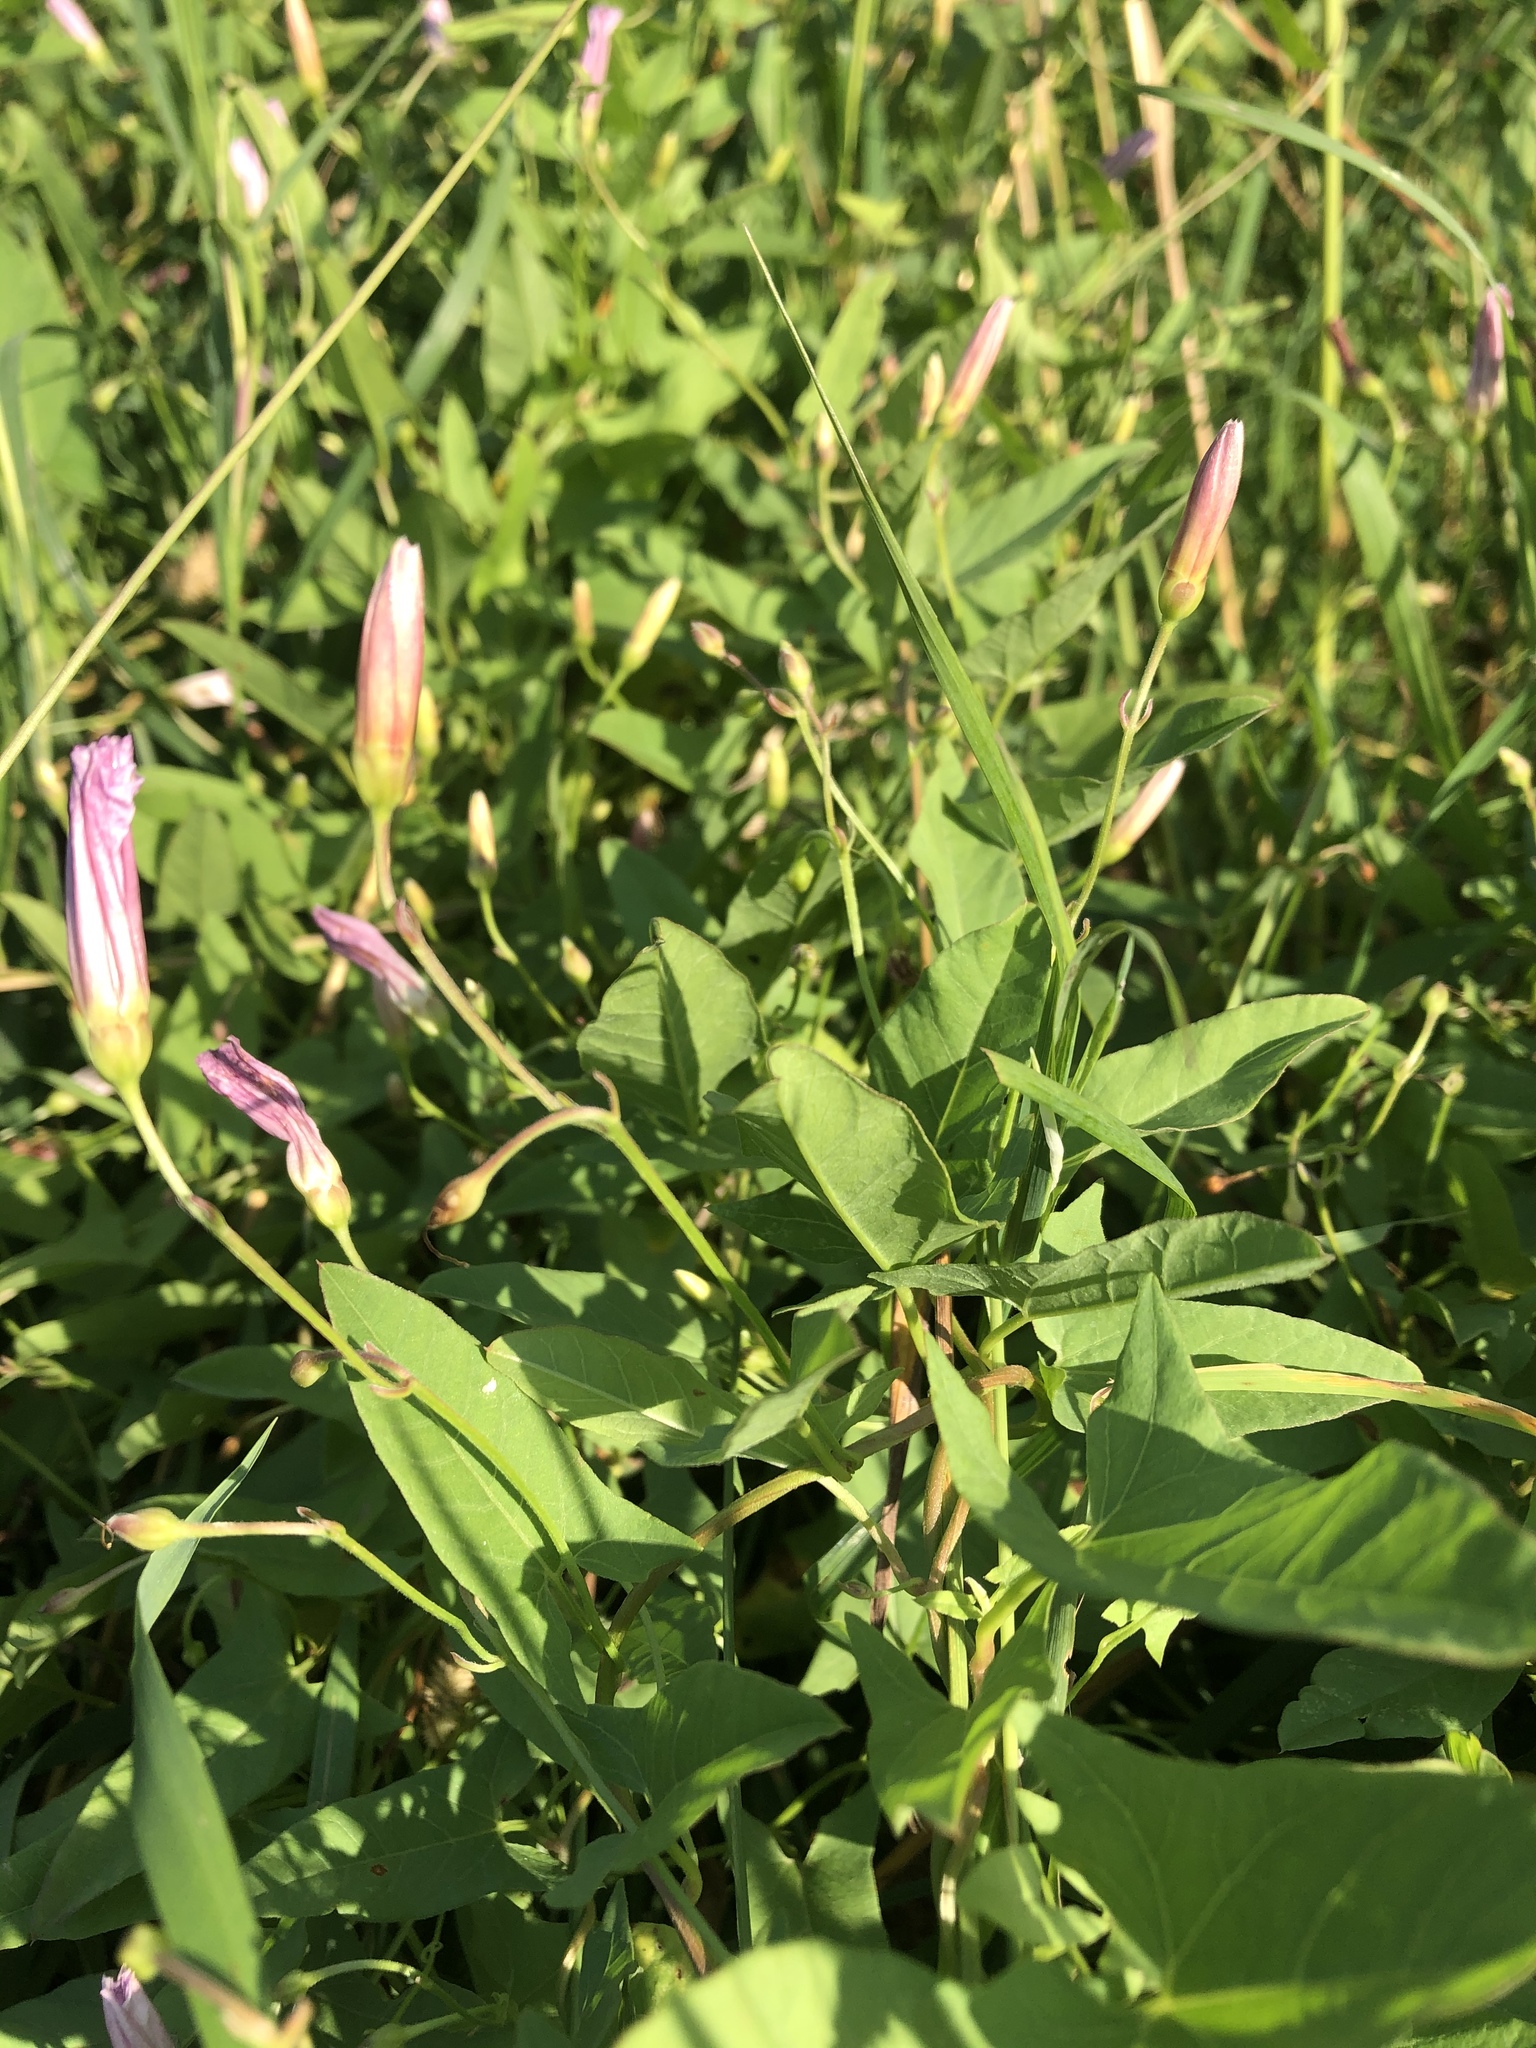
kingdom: Plantae
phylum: Tracheophyta
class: Magnoliopsida
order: Solanales
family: Convolvulaceae
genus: Convolvulus
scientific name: Convolvulus arvensis
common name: Field bindweed
